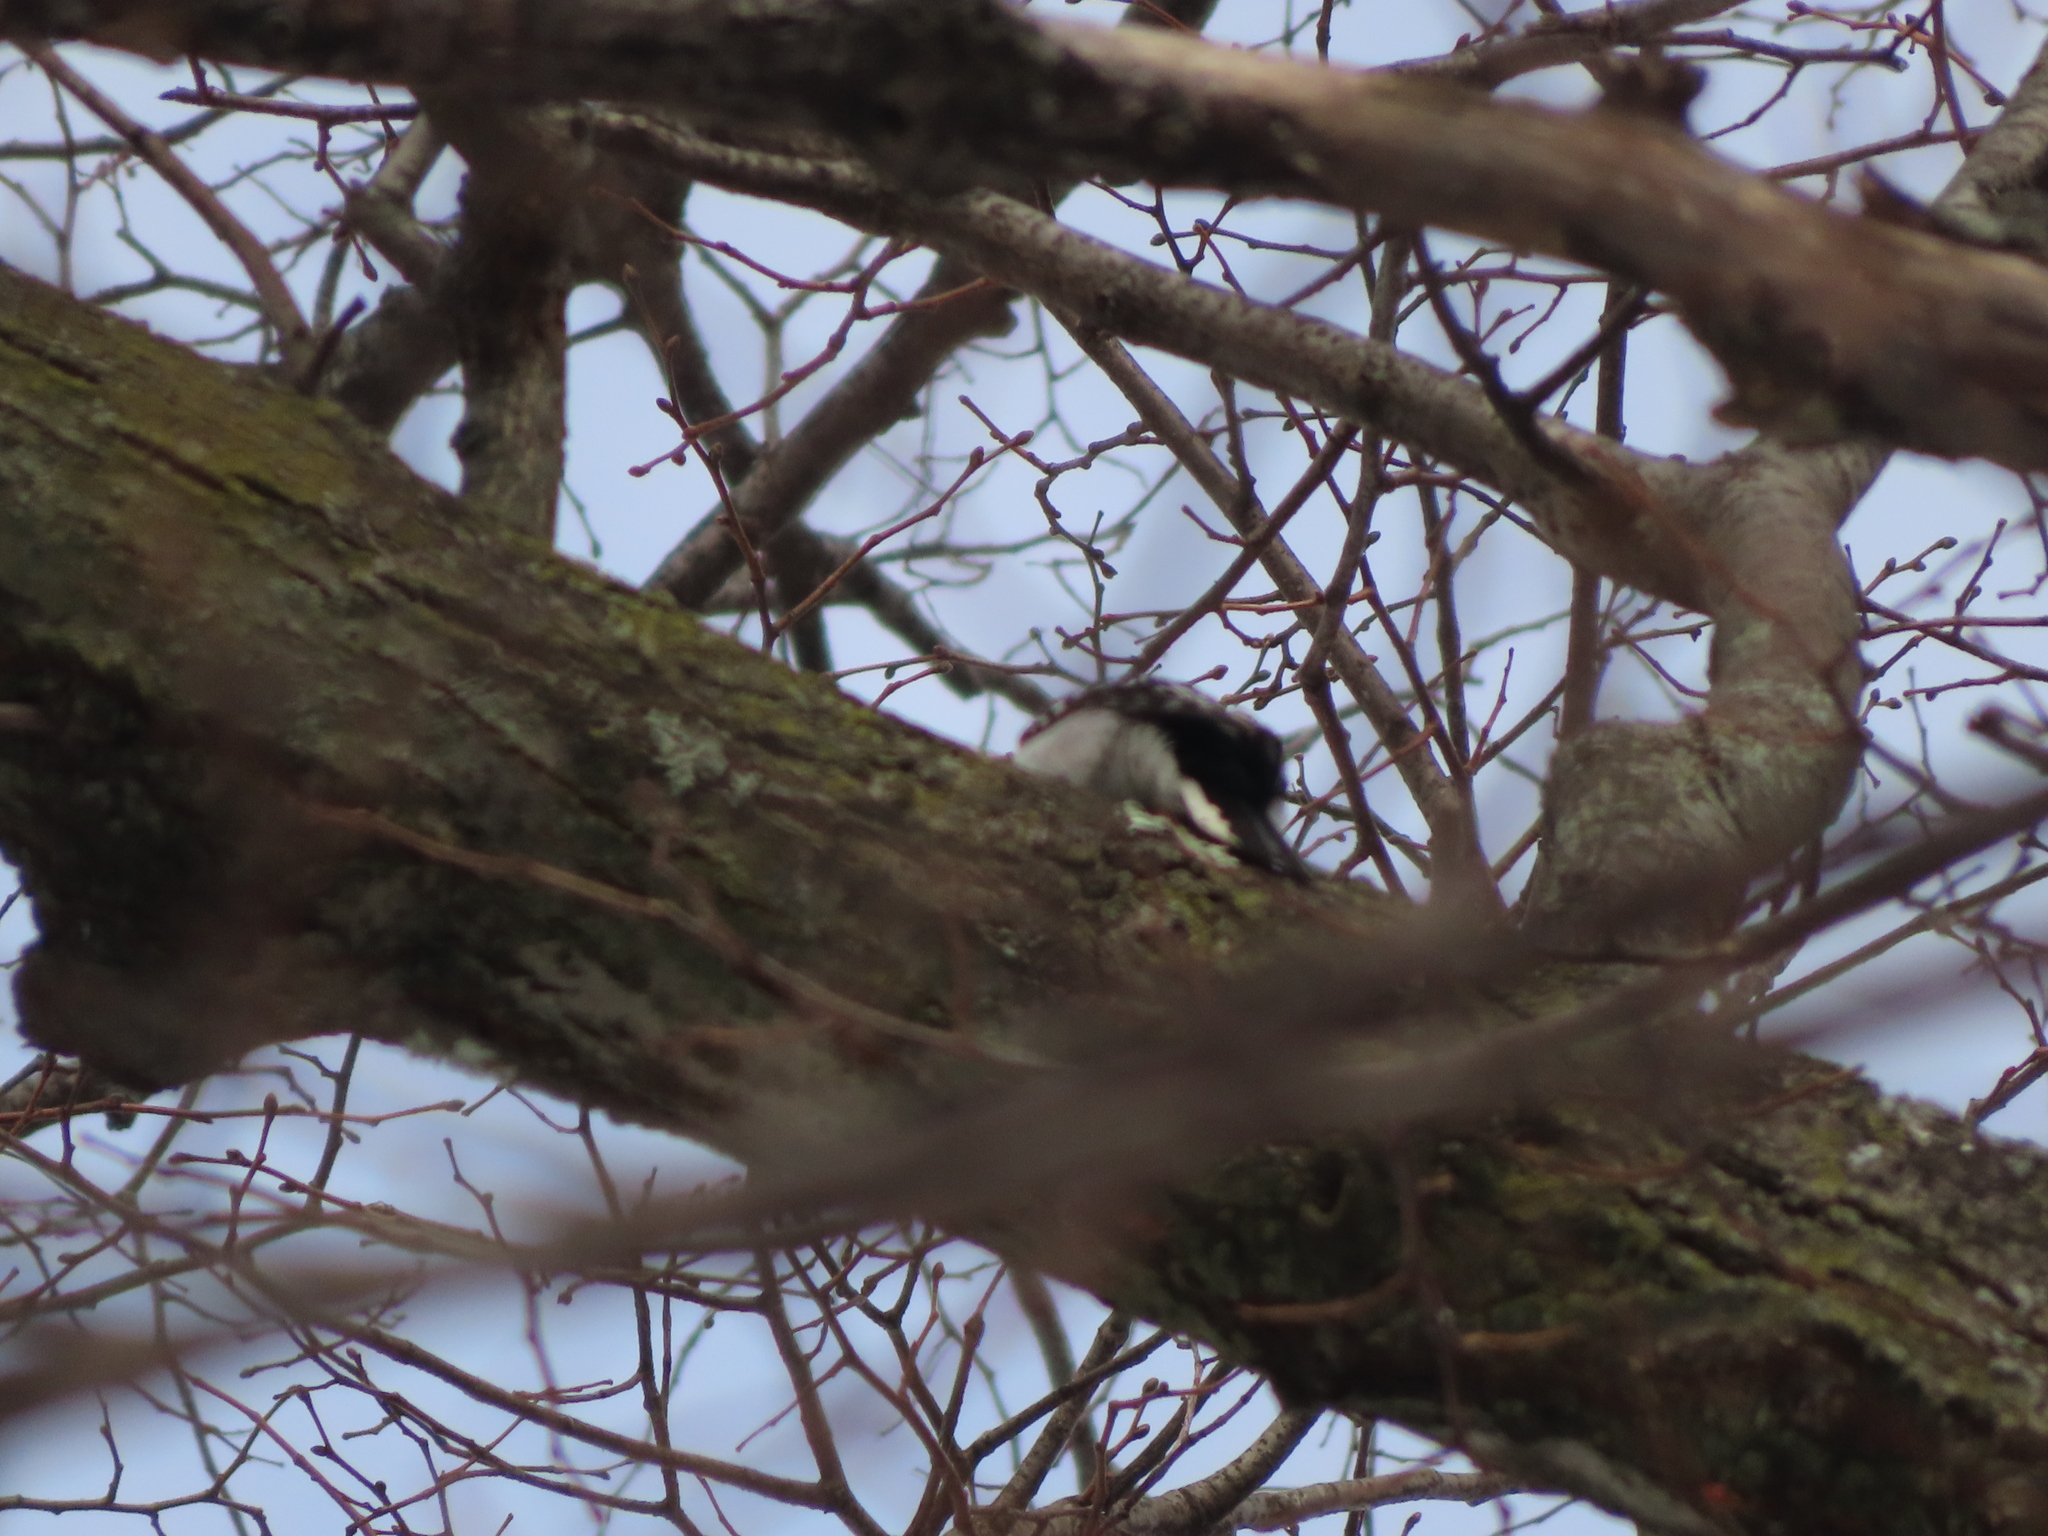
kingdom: Animalia
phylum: Chordata
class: Aves
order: Piciformes
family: Picidae
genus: Dryobates
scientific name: Dryobates pubescens
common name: Downy woodpecker
